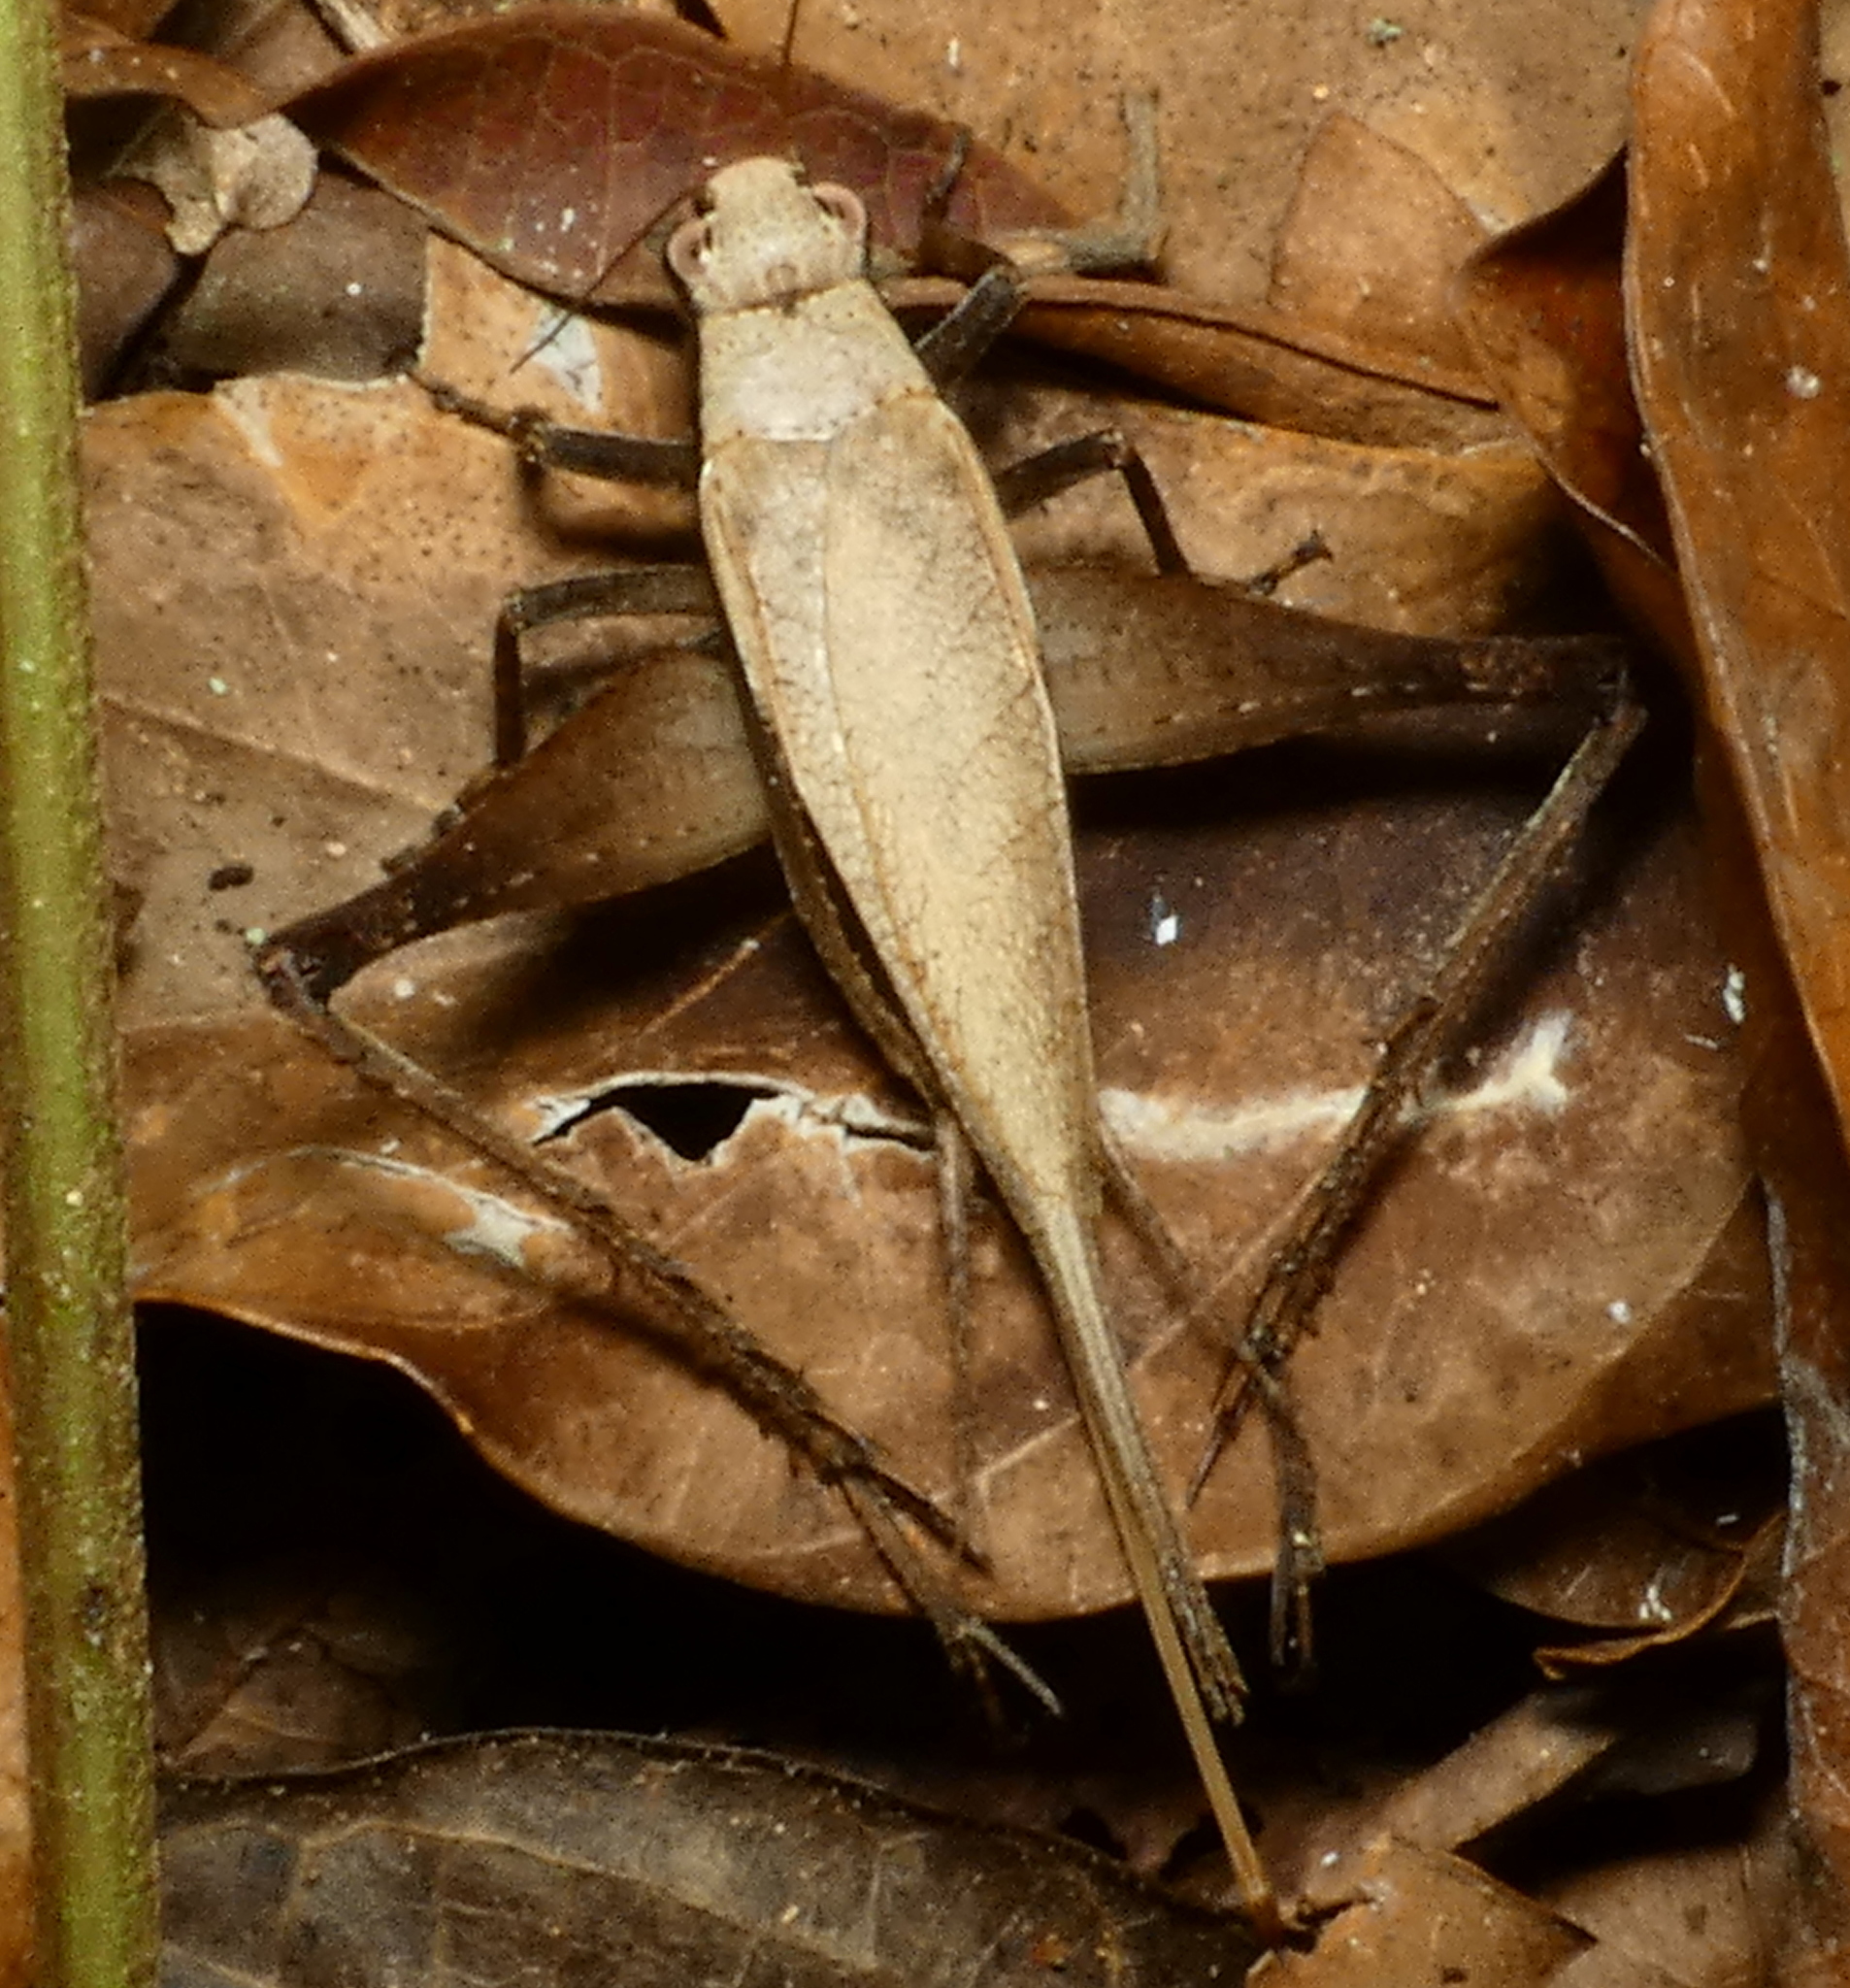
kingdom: Animalia
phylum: Arthropoda
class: Insecta
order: Orthoptera
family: Gryllidae
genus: Eneoptera
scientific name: Eneoptera surinamensis
